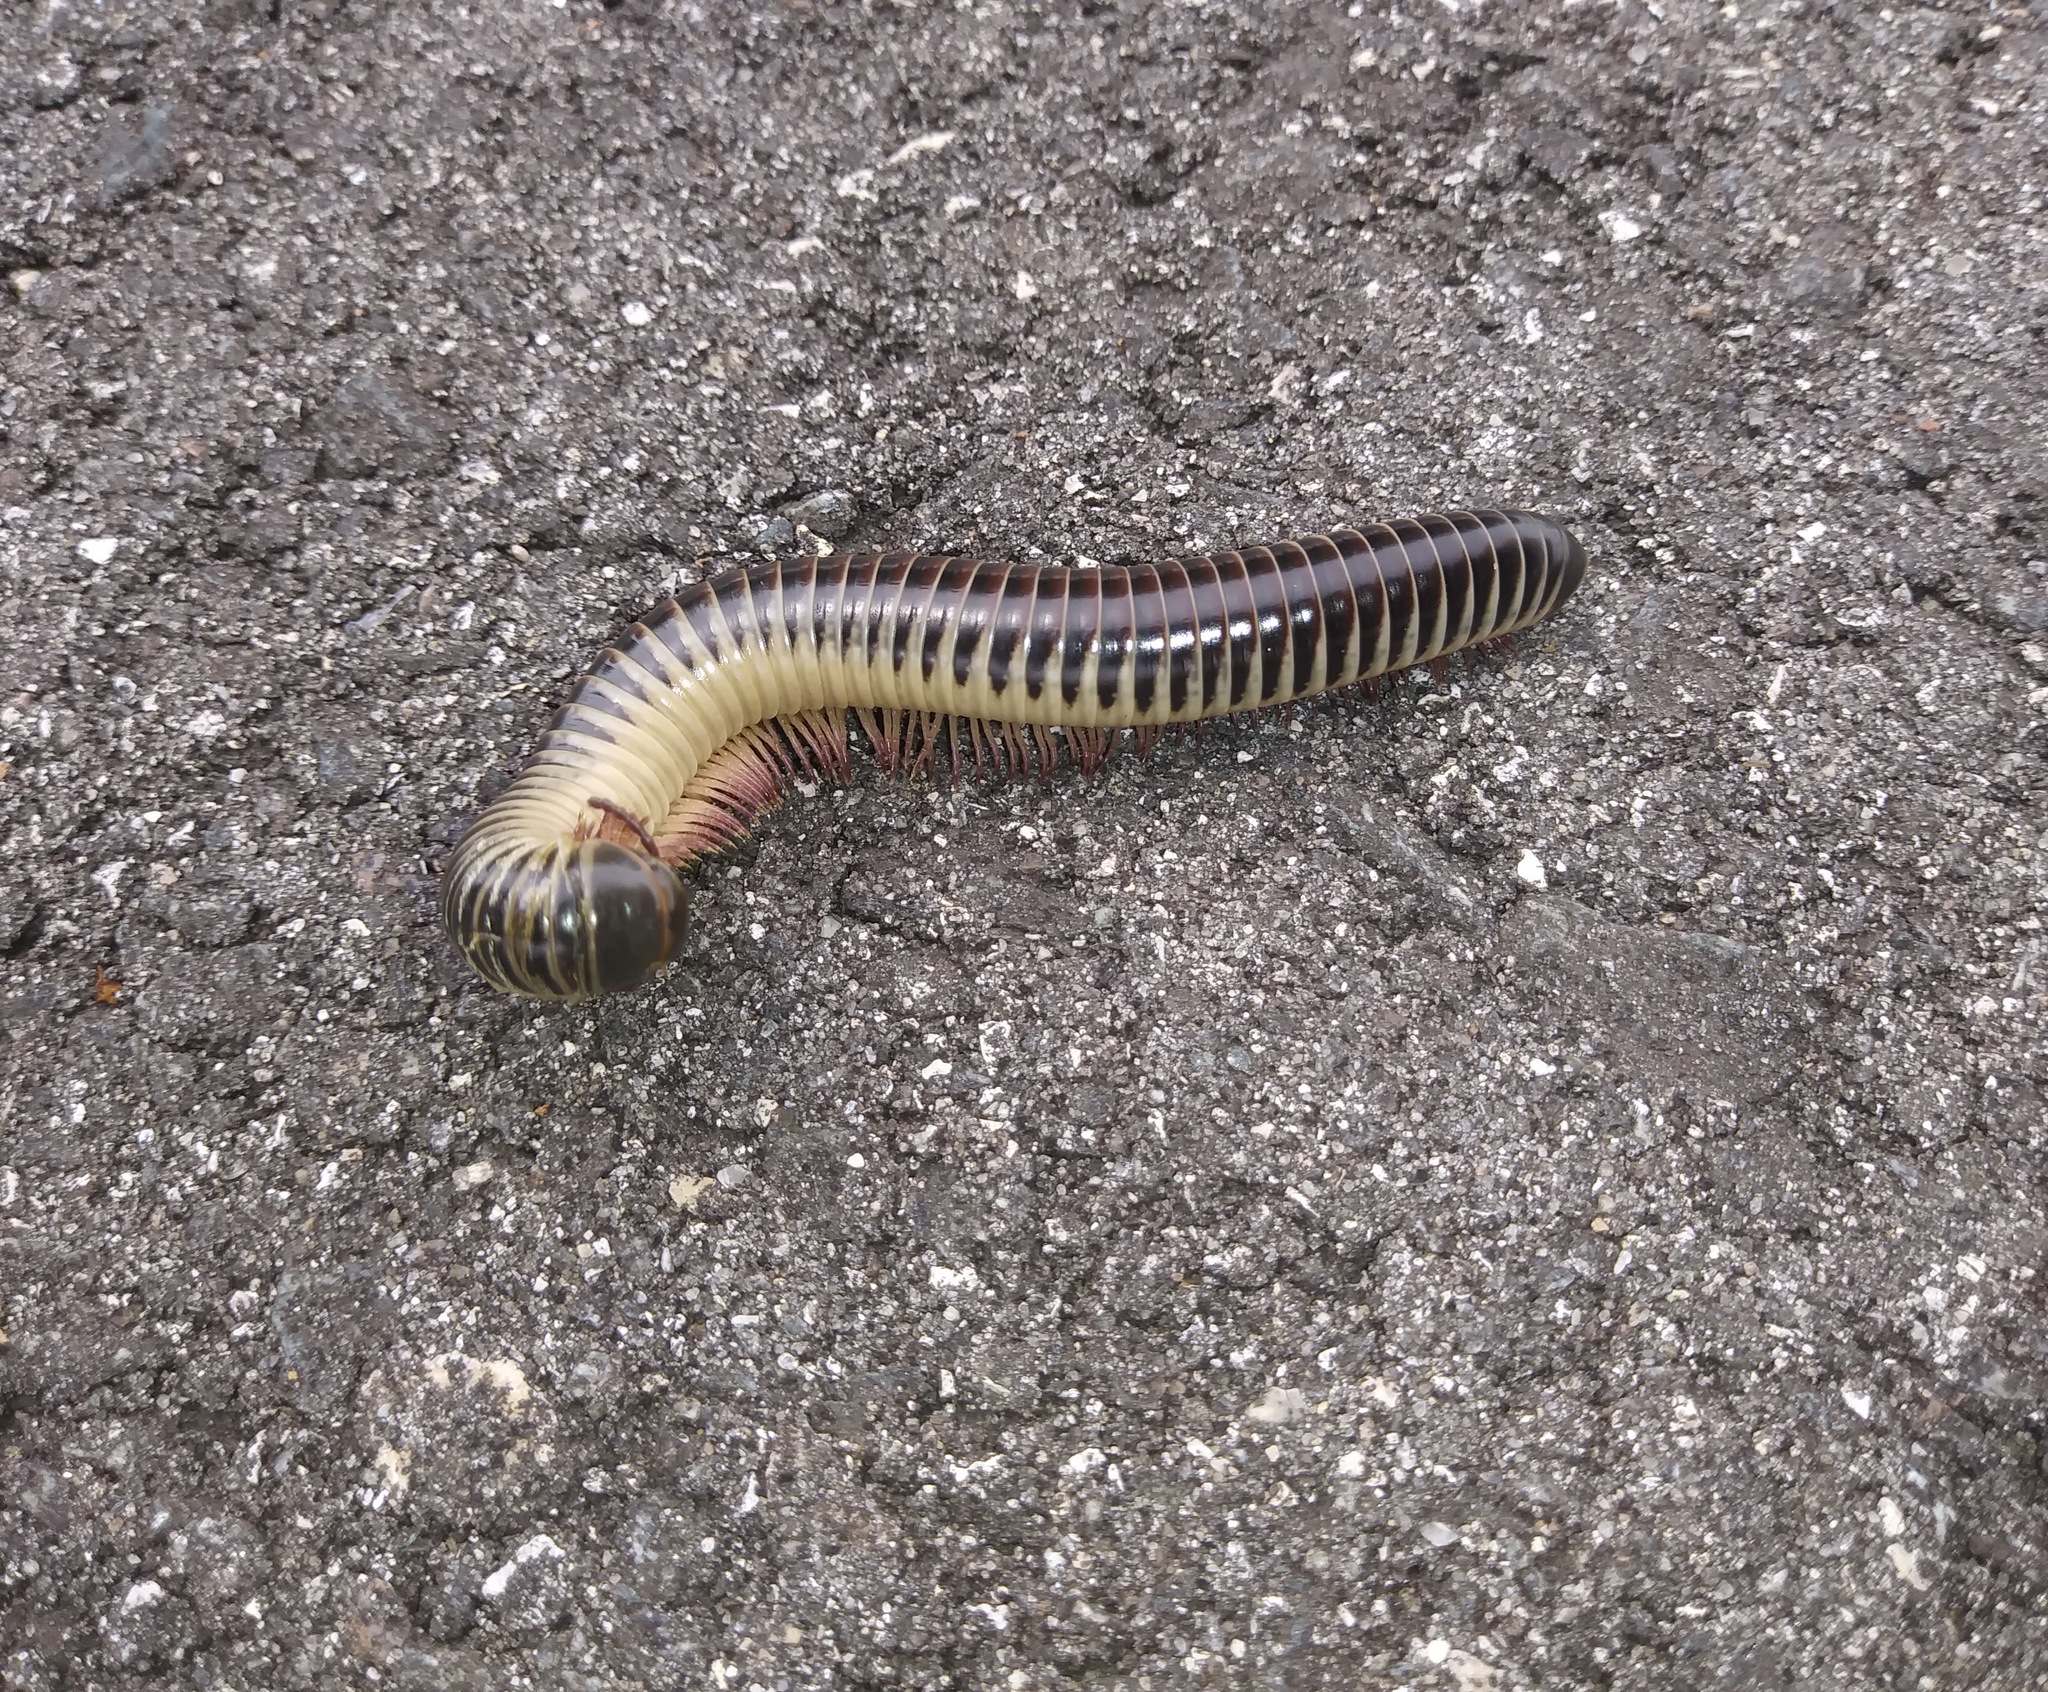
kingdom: Animalia
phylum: Arthropoda
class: Diplopoda
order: Spirobolida
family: Spirobolidae
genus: Chicobolus
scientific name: Chicobolus spinigerus
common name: Florida ivory millipede
